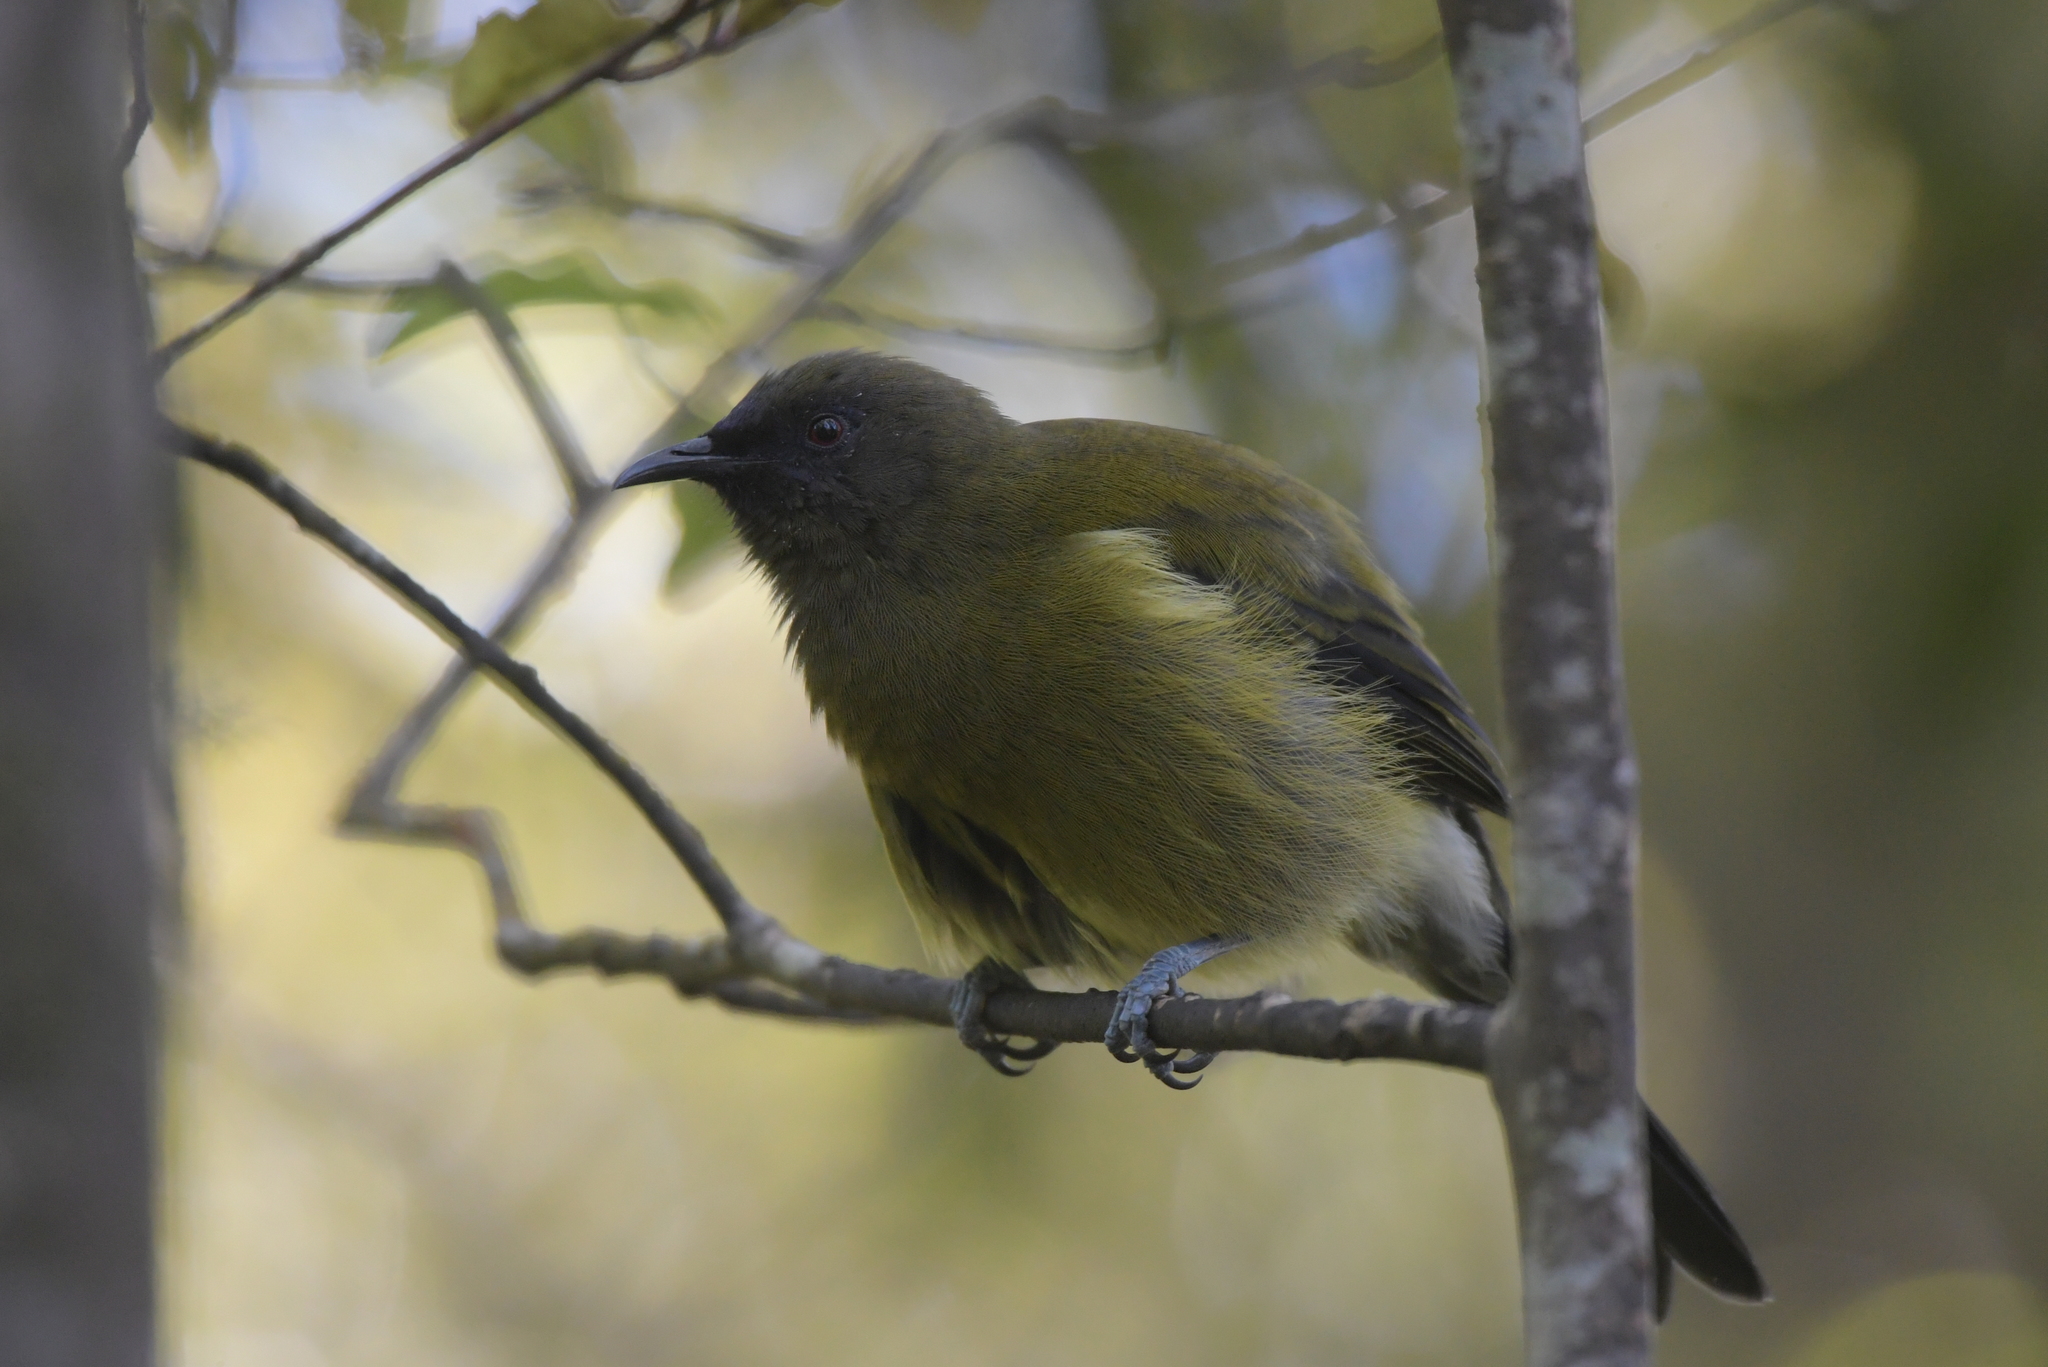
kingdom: Animalia
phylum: Chordata
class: Aves
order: Passeriformes
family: Meliphagidae
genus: Anthornis
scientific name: Anthornis melanura
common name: New zealand bellbird
